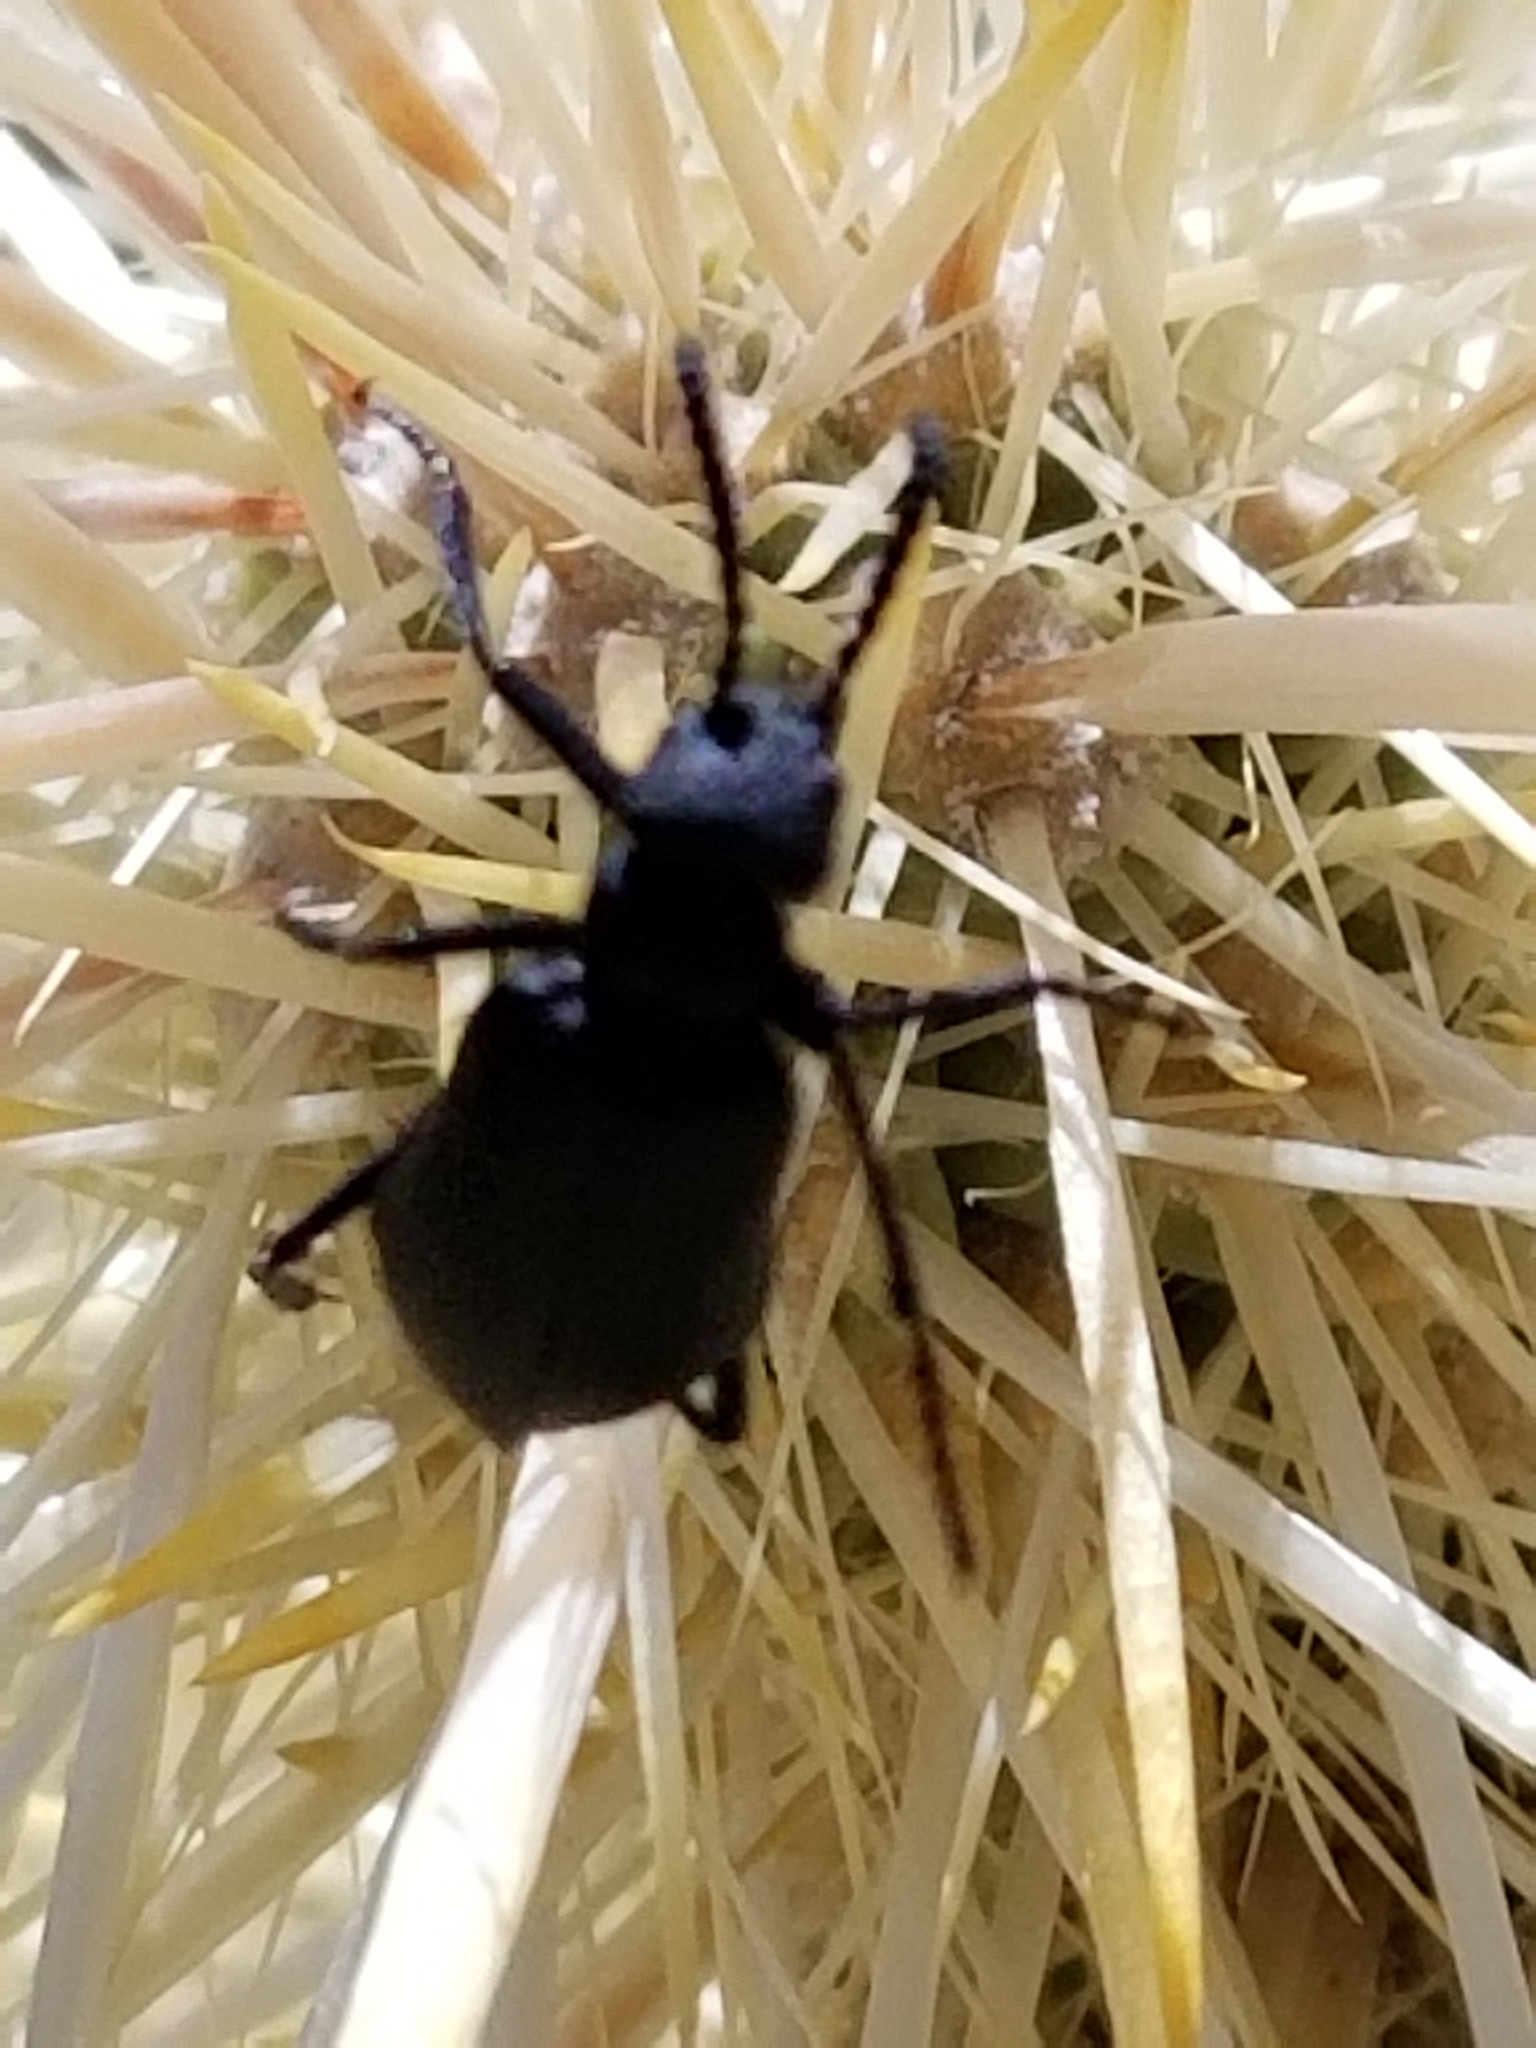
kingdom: Animalia
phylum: Arthropoda
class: Insecta
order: Coleoptera
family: Meloidae
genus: Cordylospasta
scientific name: Cordylospasta opaca
